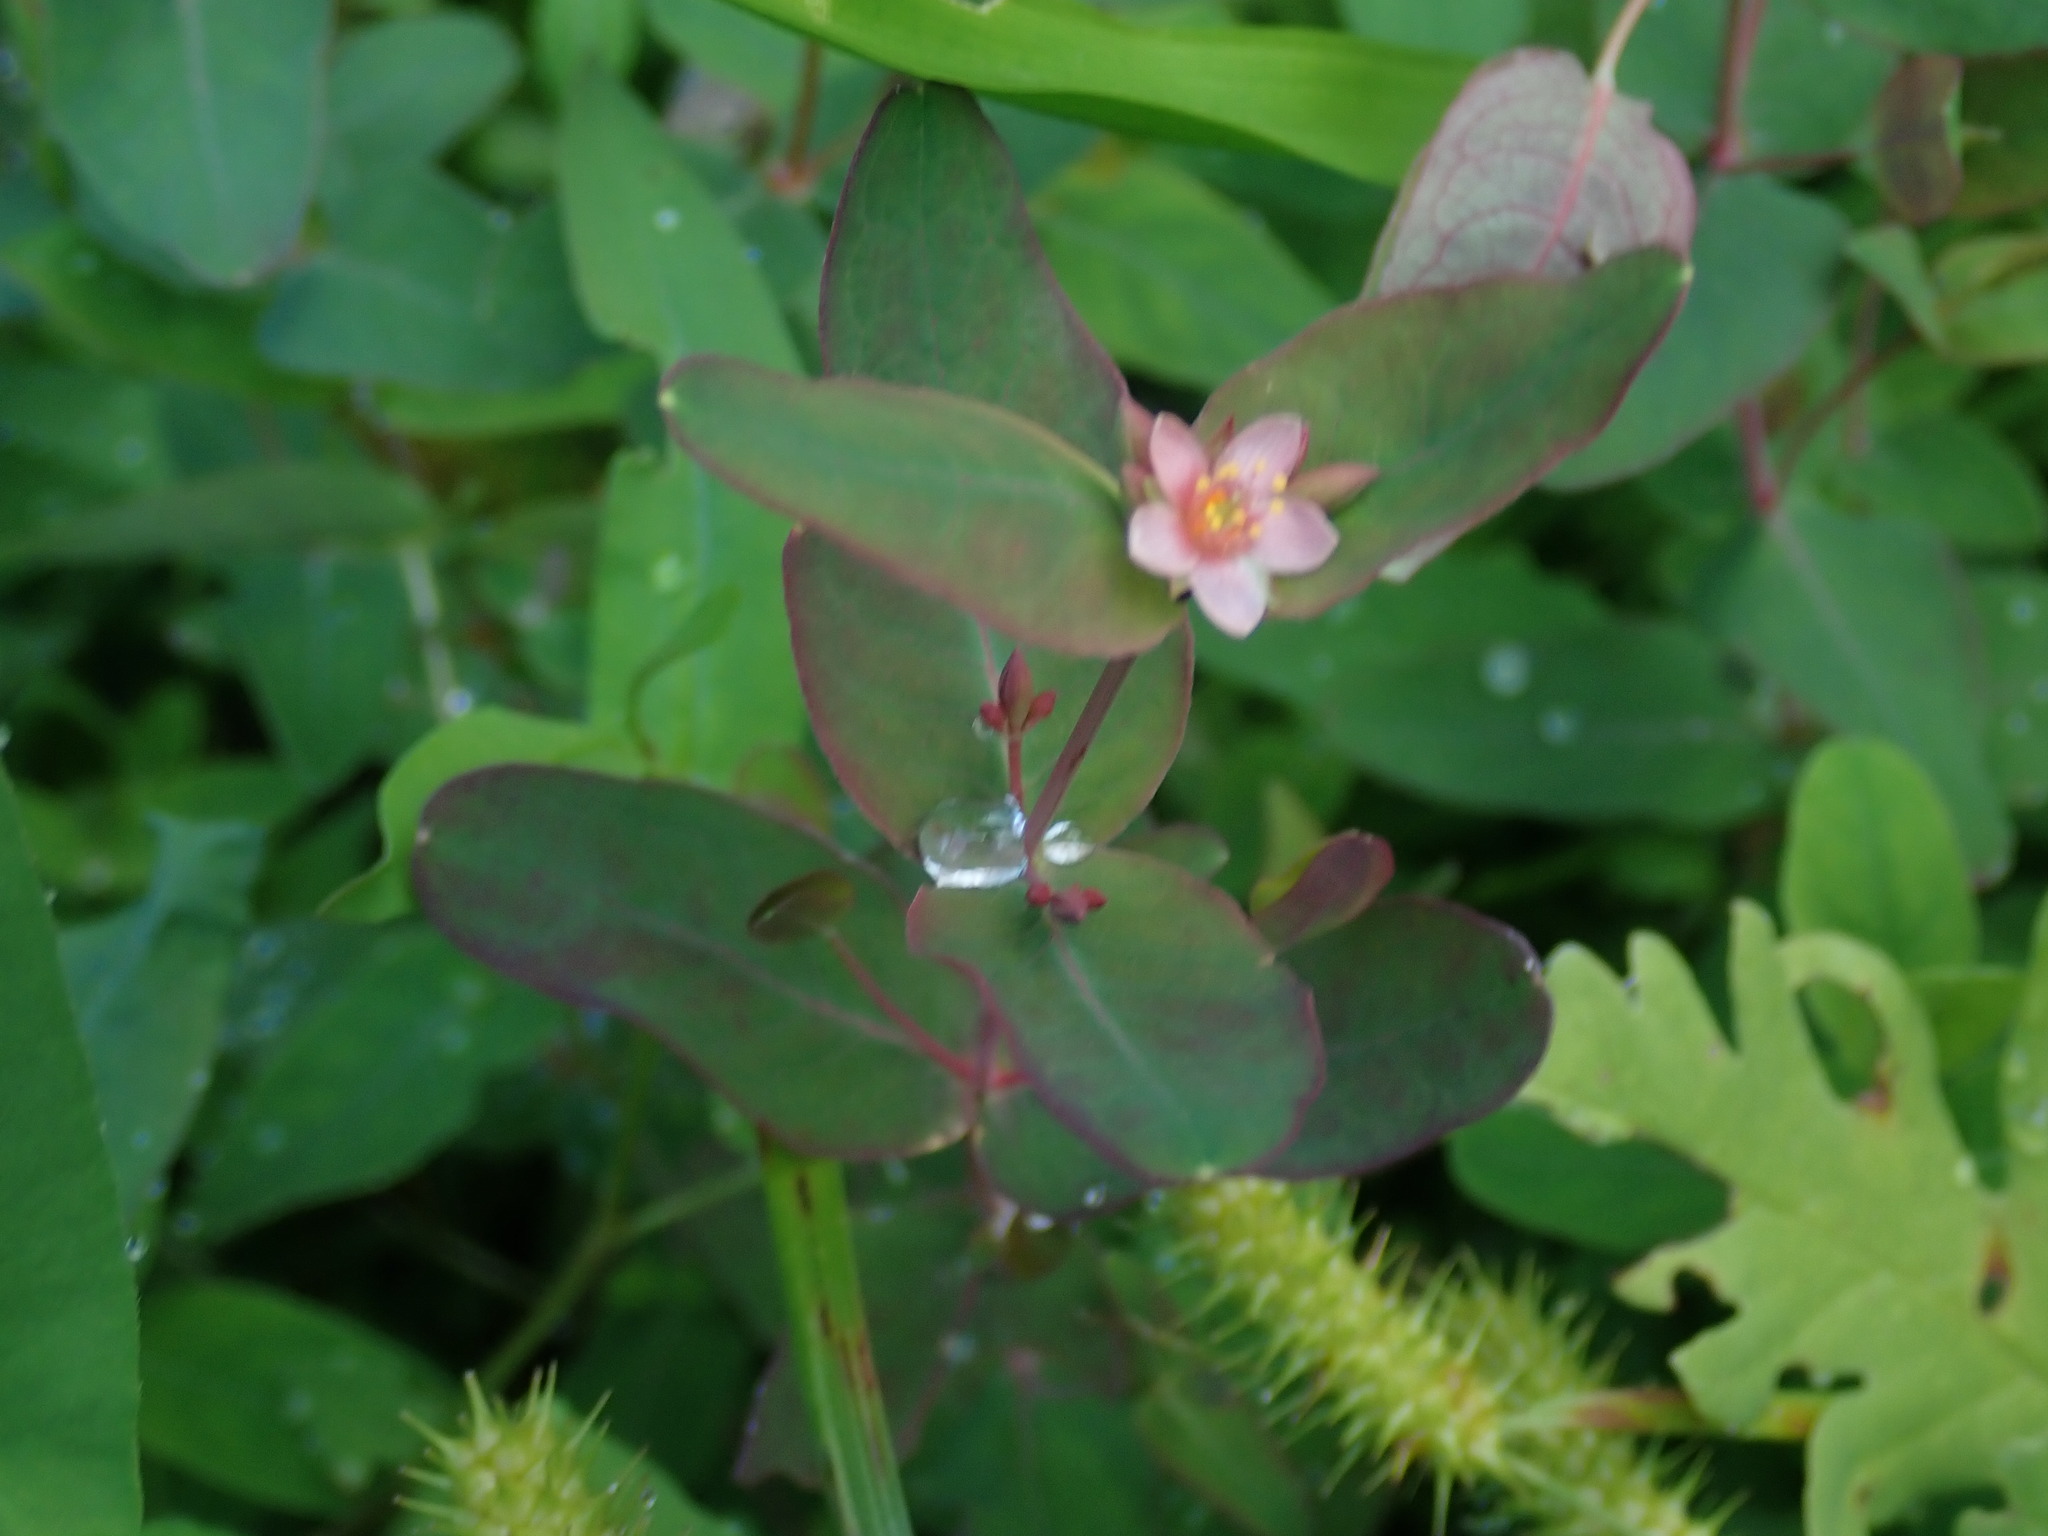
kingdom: Plantae
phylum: Tracheophyta
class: Magnoliopsida
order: Malpighiales
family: Hypericaceae
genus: Triadenum
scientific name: Triadenum virginicum
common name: Marsh st. john's-wort
